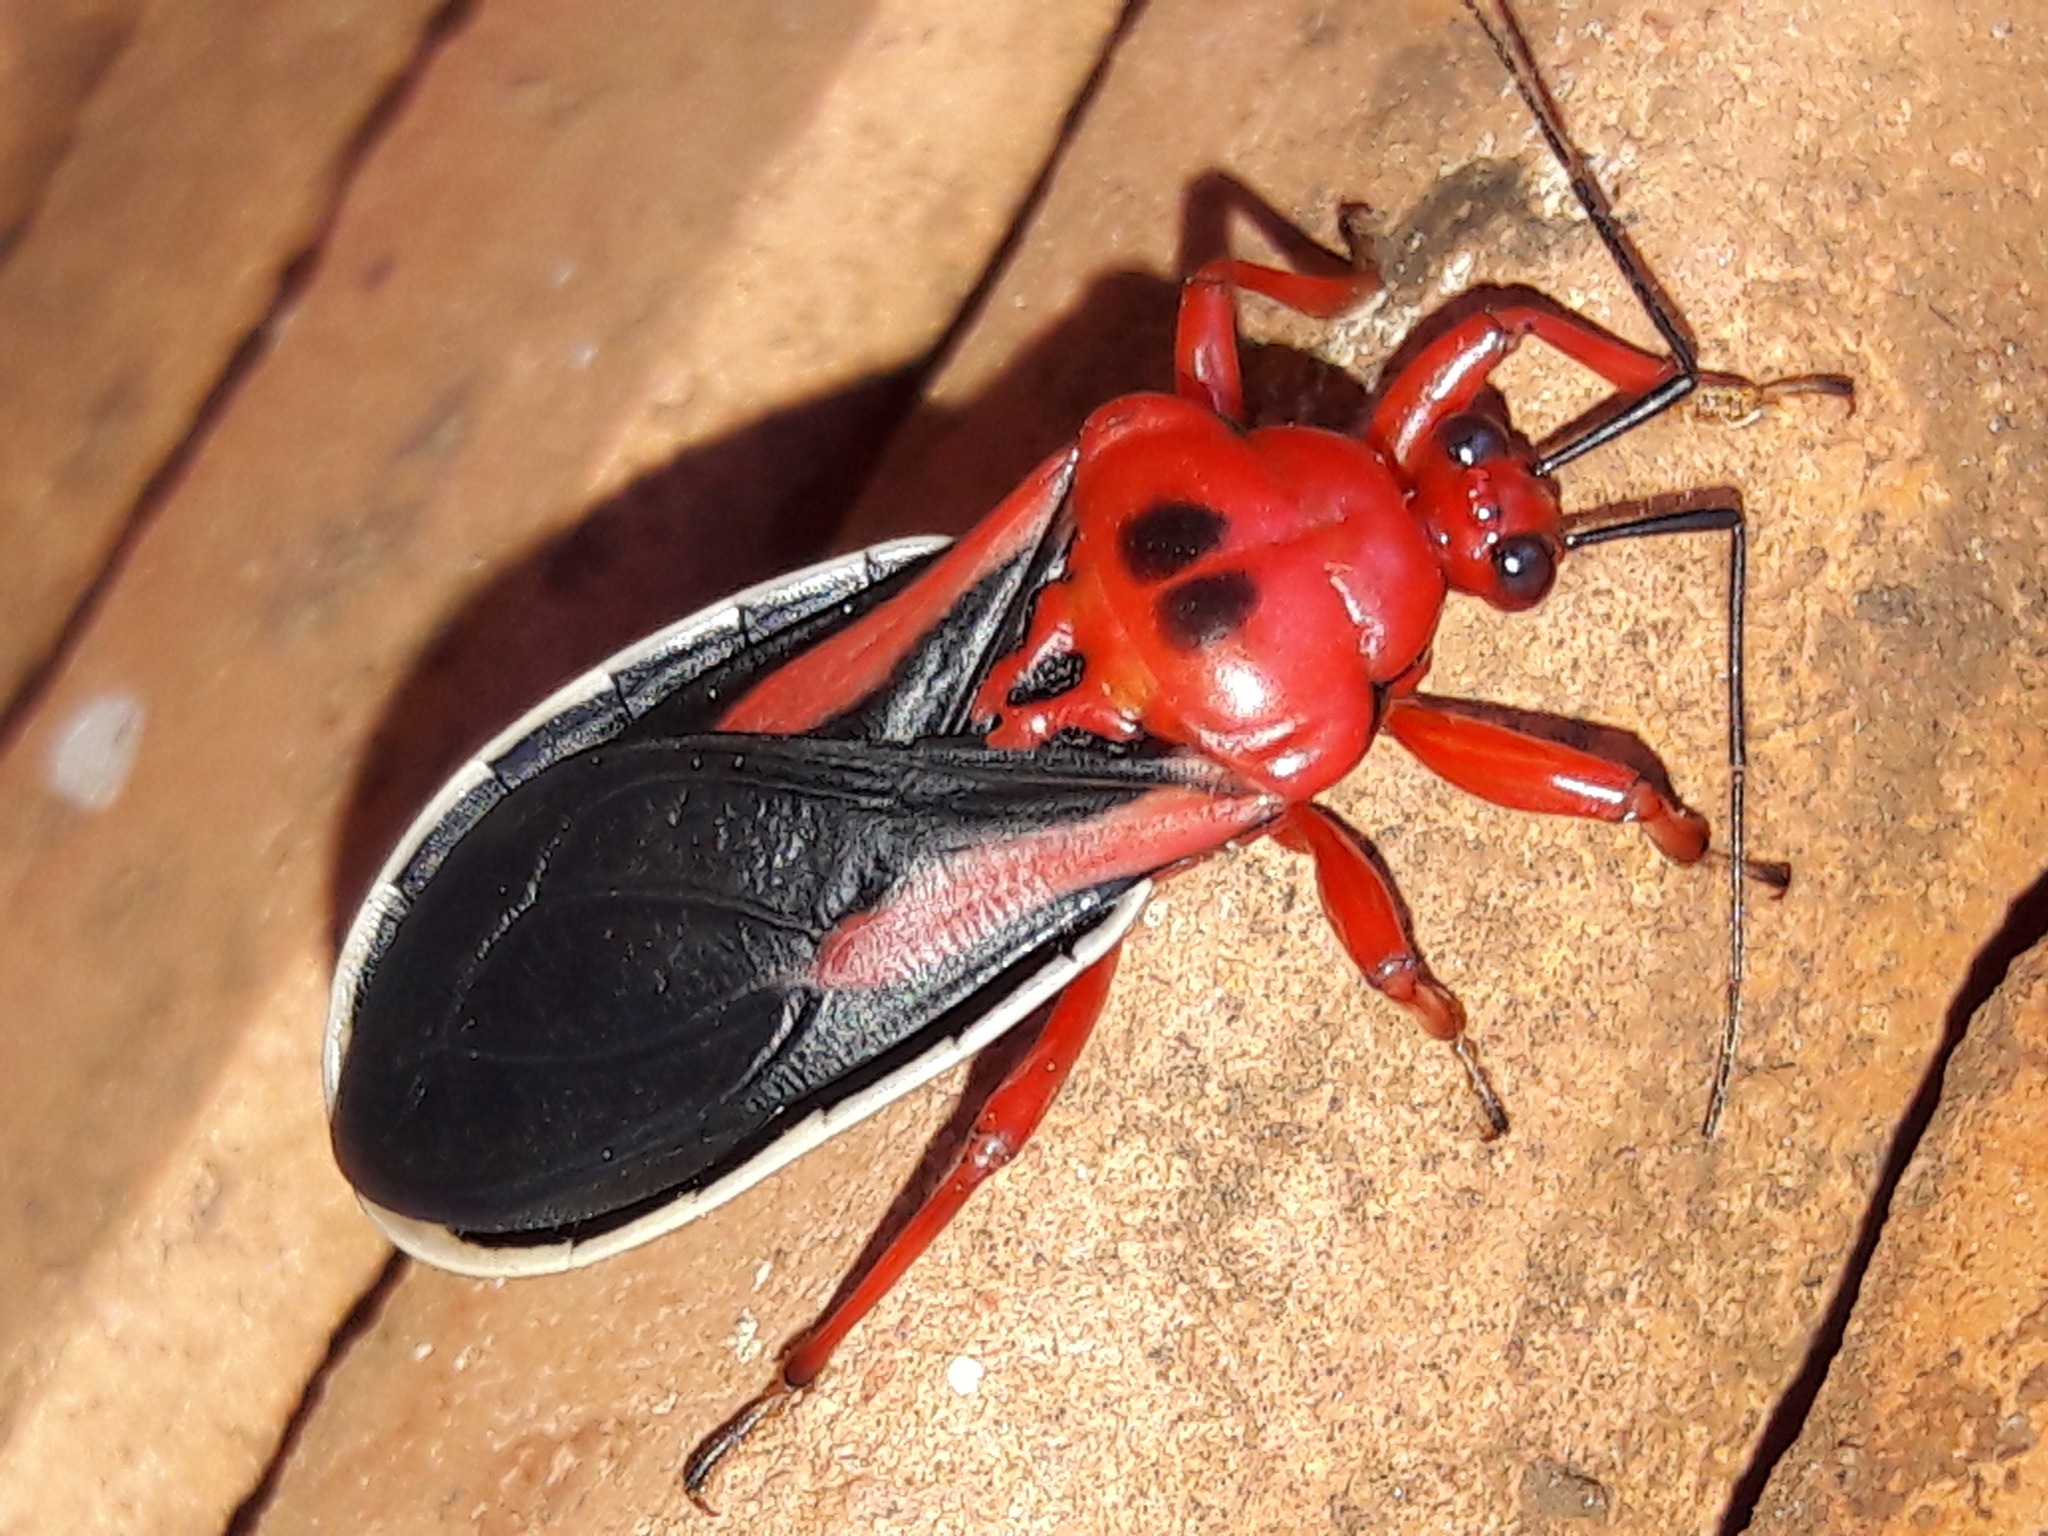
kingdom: Animalia
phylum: Arthropoda
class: Insecta
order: Hemiptera
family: Reduviidae
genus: Brontostoma
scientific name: Brontostoma discus
